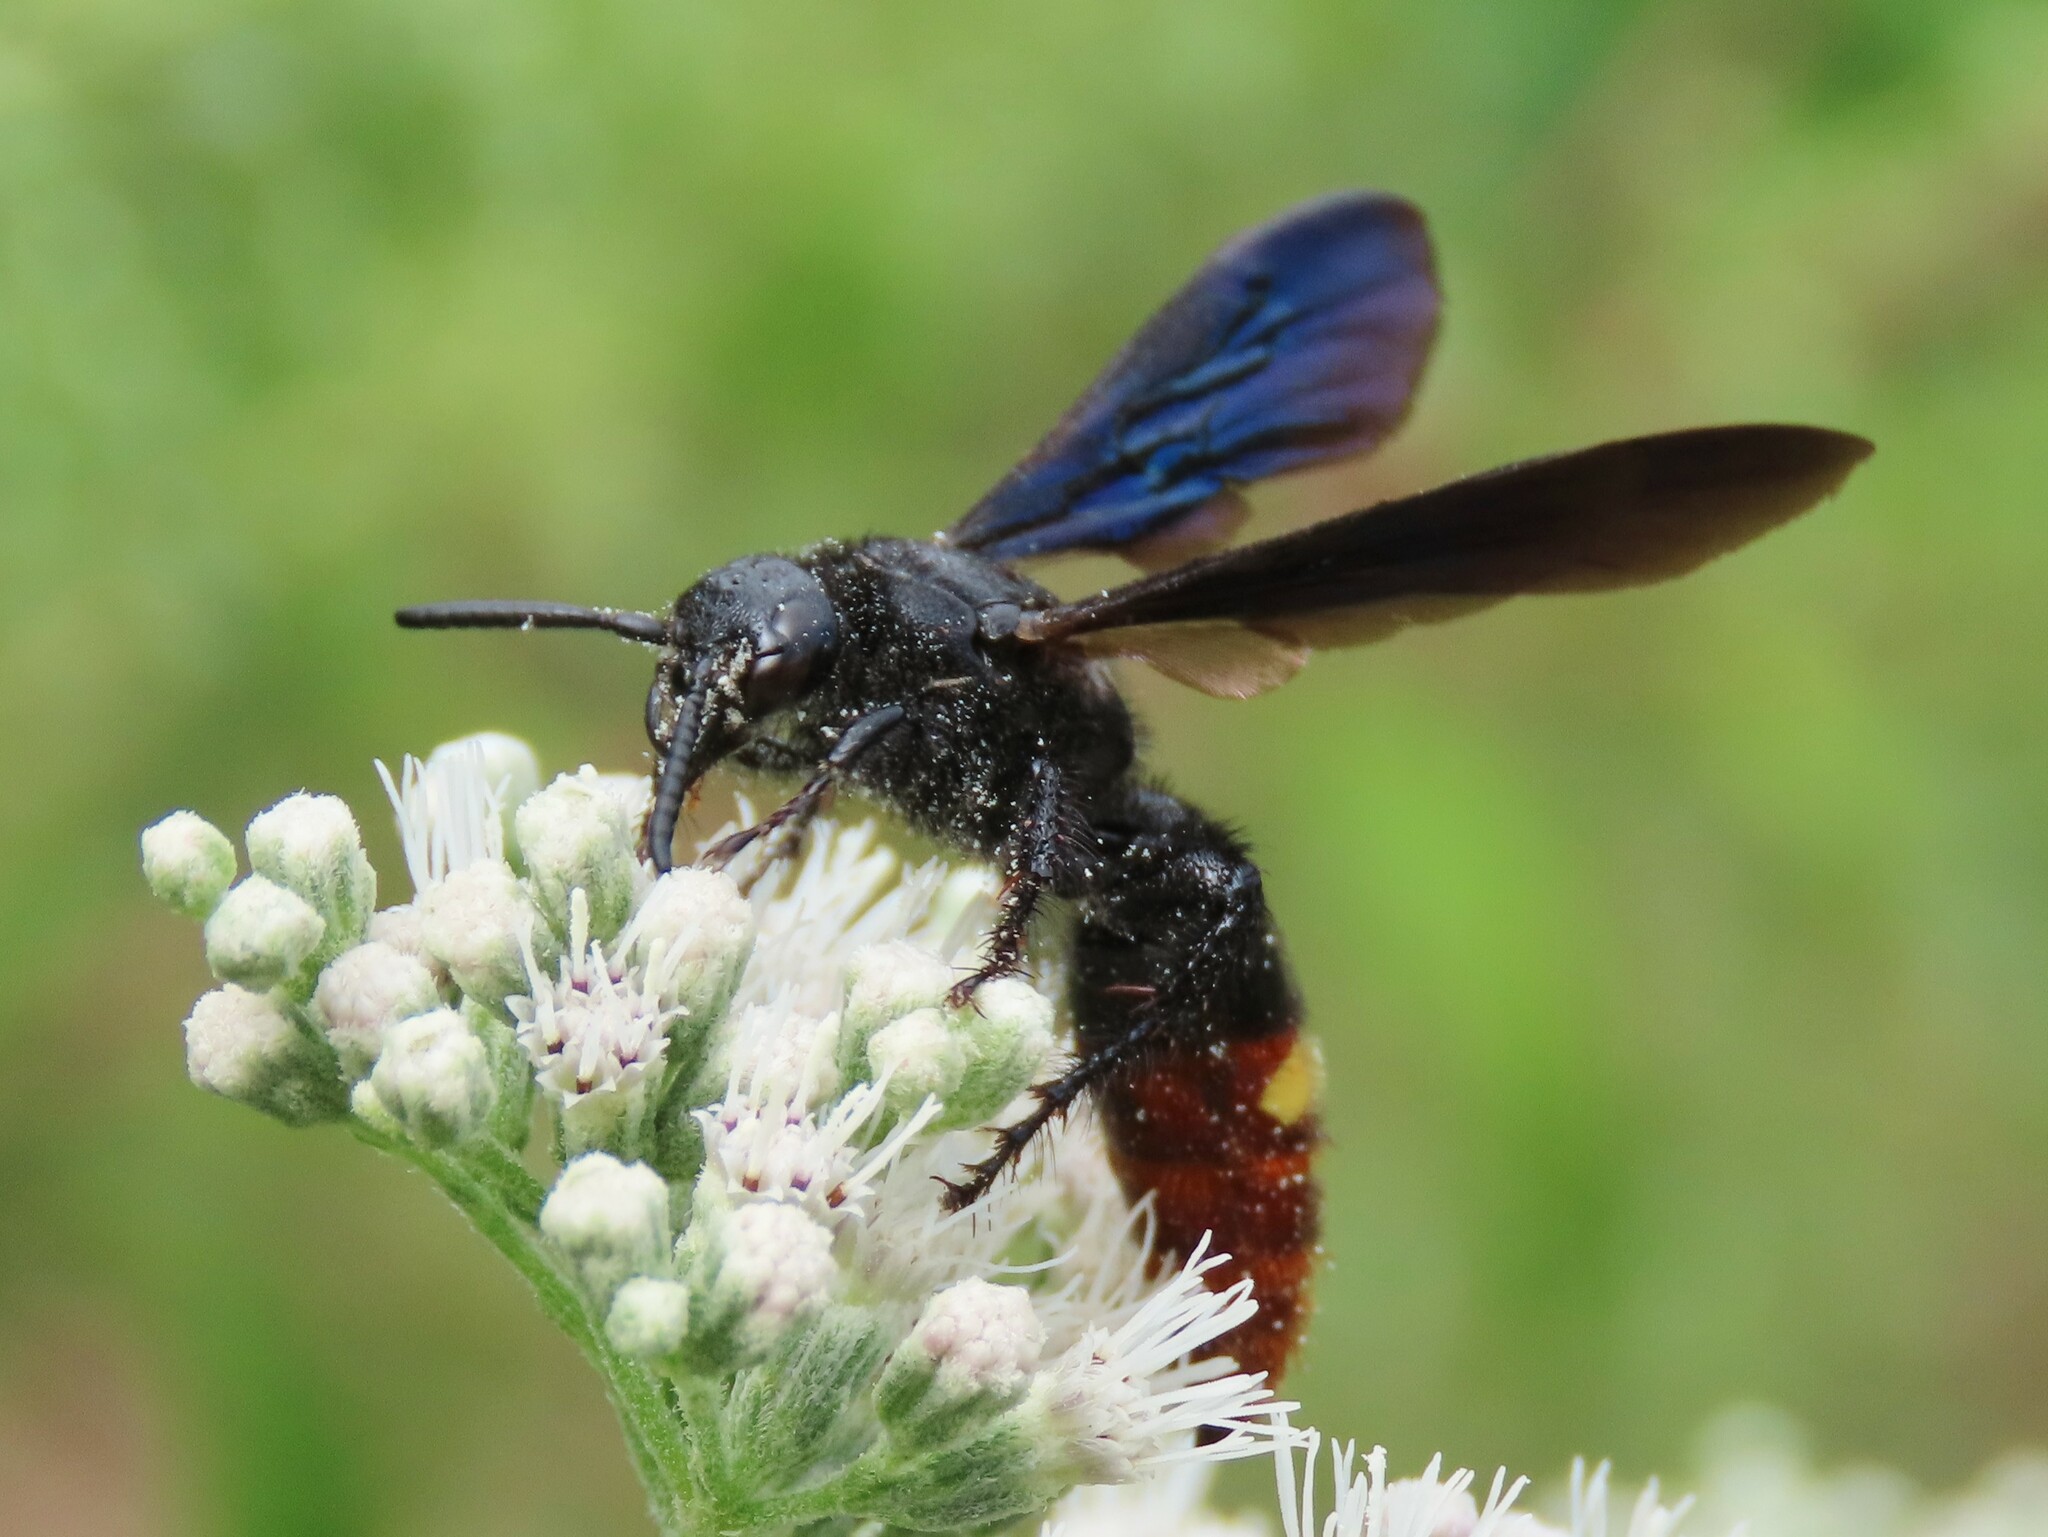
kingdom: Animalia
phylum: Arthropoda
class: Insecta
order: Hymenoptera
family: Scoliidae
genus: Scolia
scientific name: Scolia dubia
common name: Blue-winged scoliid wasp
